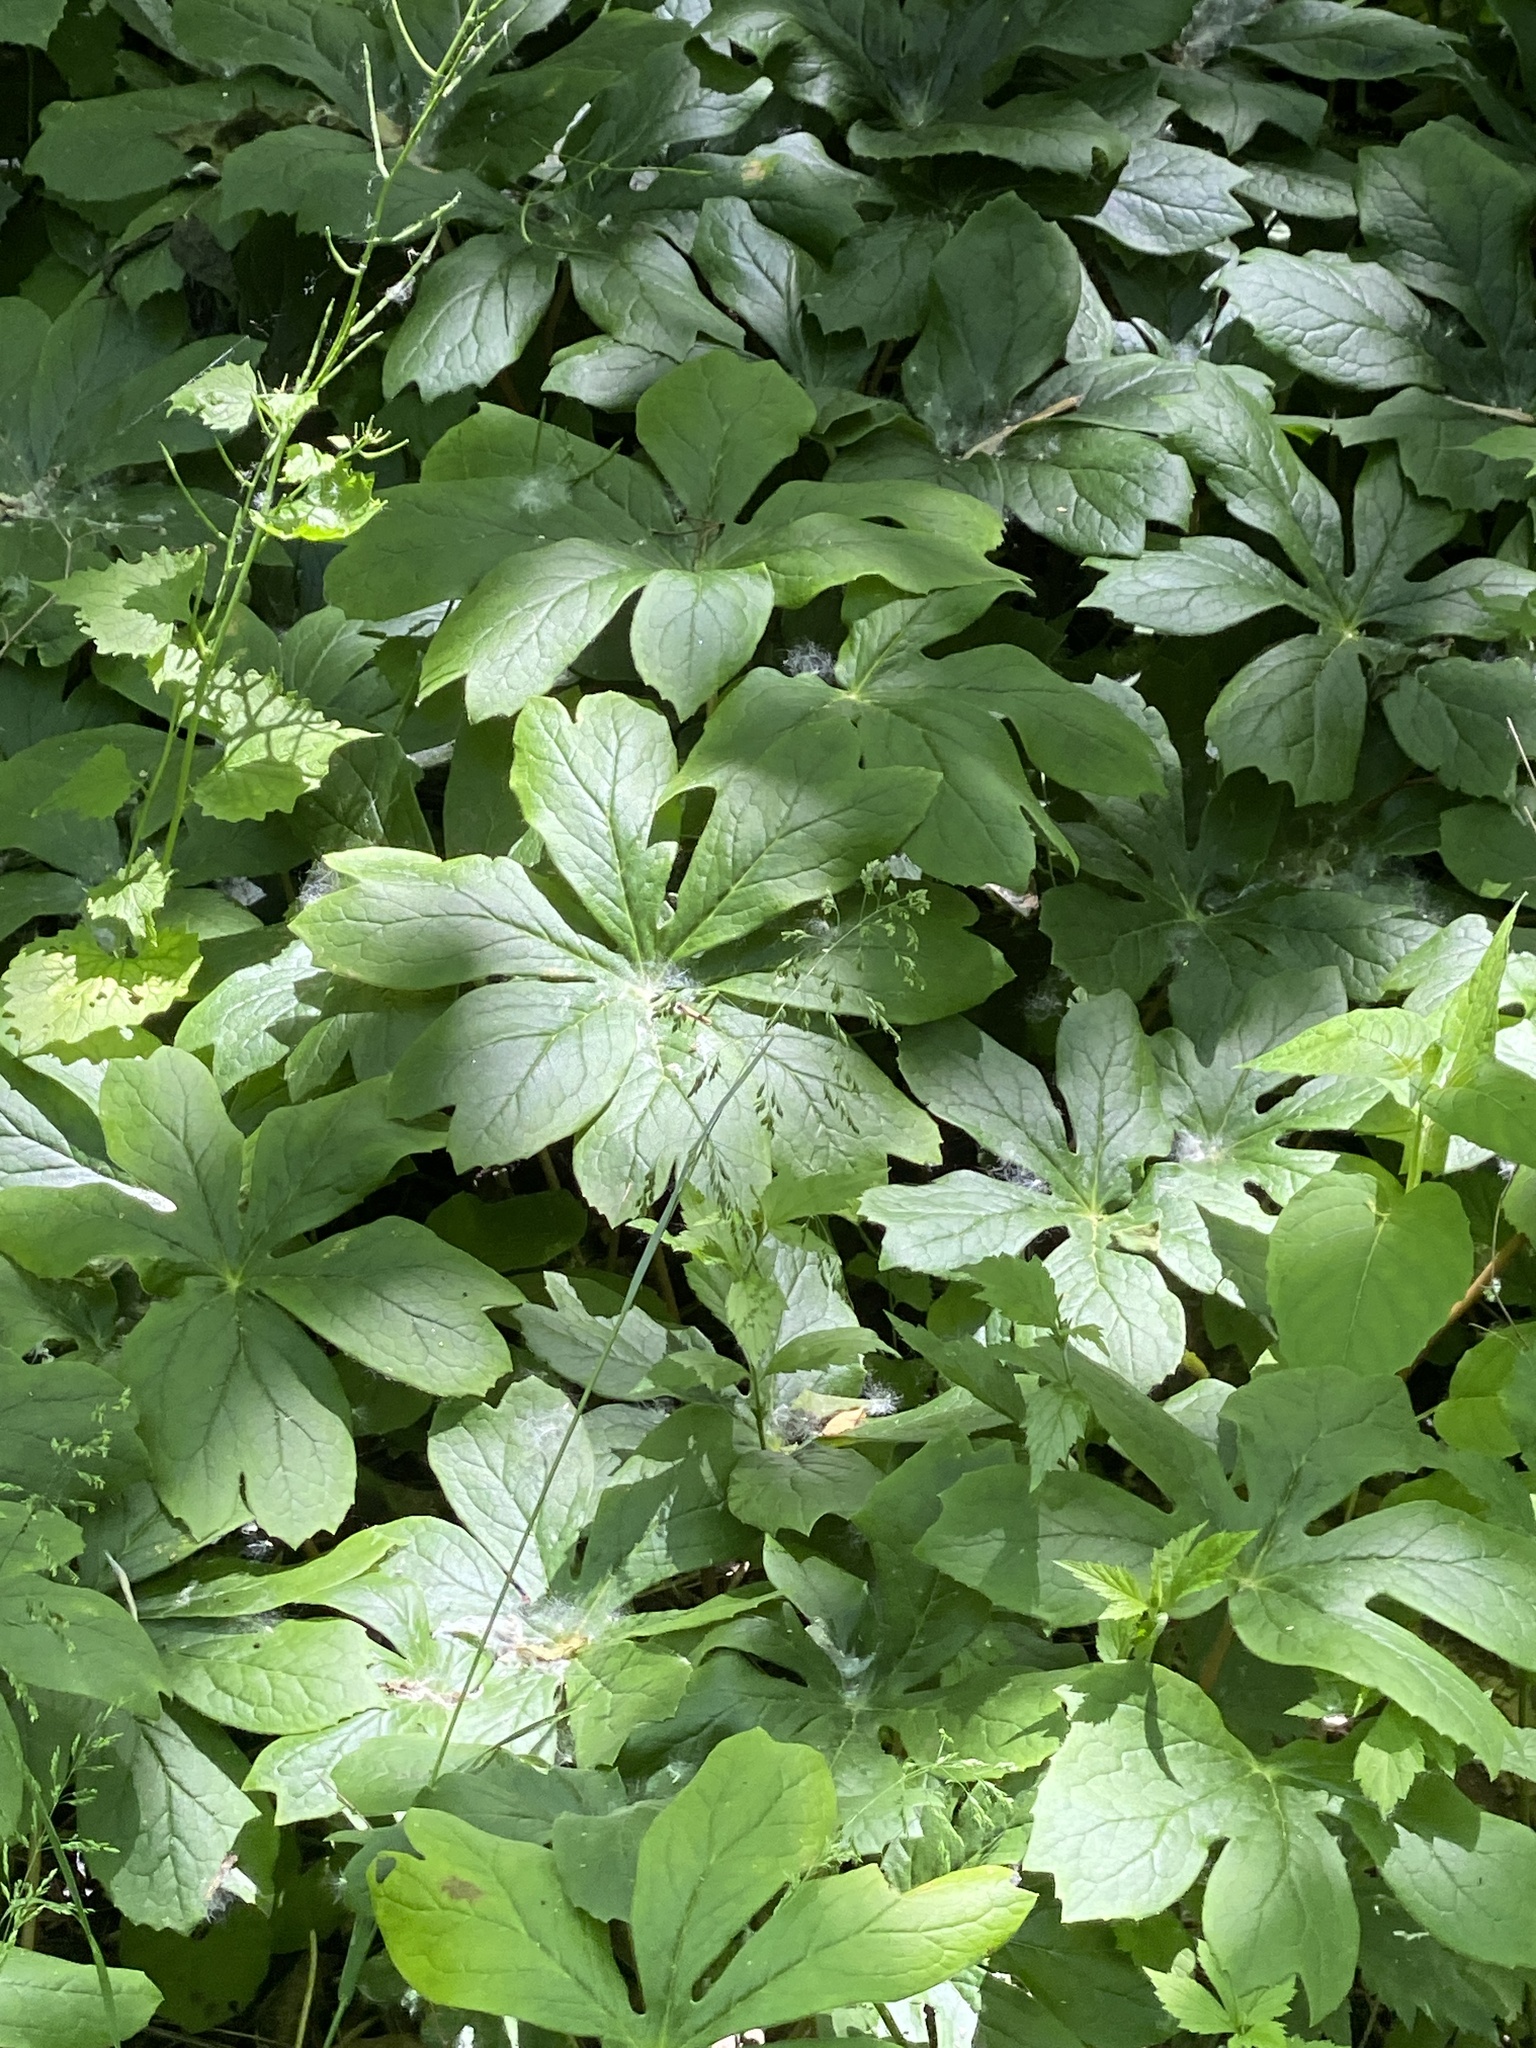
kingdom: Plantae
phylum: Tracheophyta
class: Magnoliopsida
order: Ranunculales
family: Berberidaceae
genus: Podophyllum
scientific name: Podophyllum peltatum
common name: Wild mandrake
